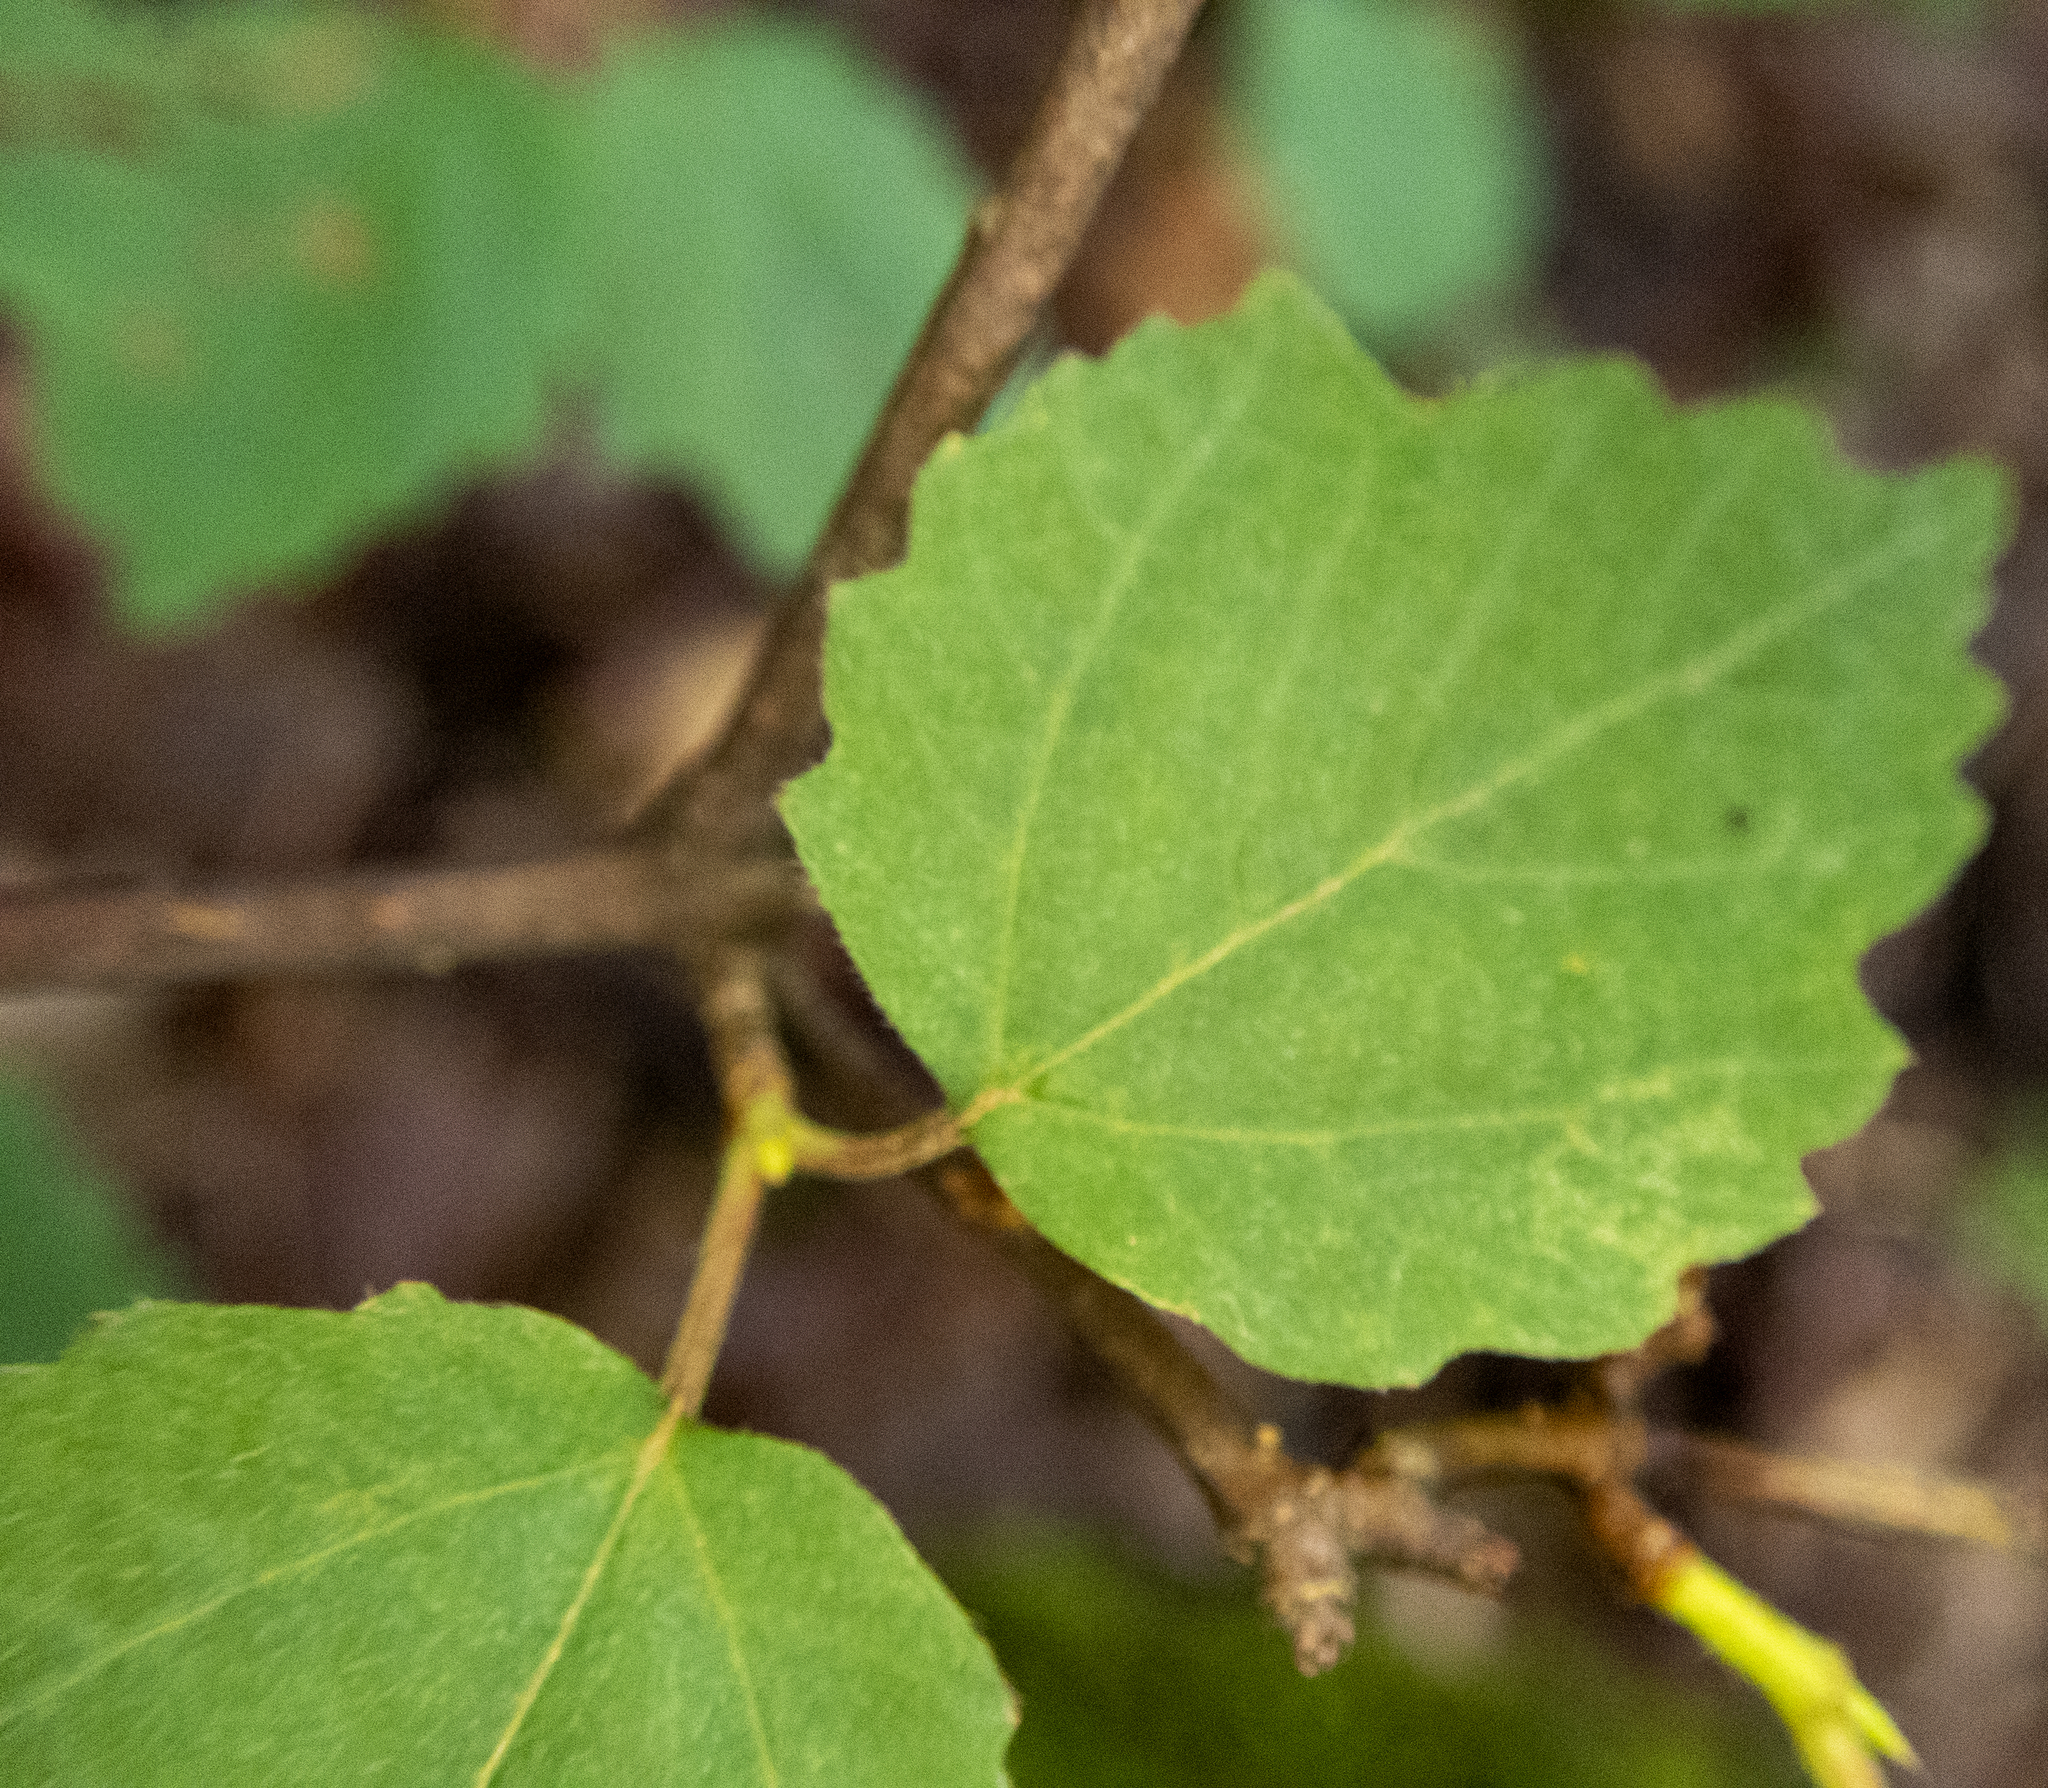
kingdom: Plantae
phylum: Tracheophyta
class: Magnoliopsida
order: Dipsacales
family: Viburnaceae
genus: Viburnum
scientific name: Viburnum acerifolium
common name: Dockmackie
